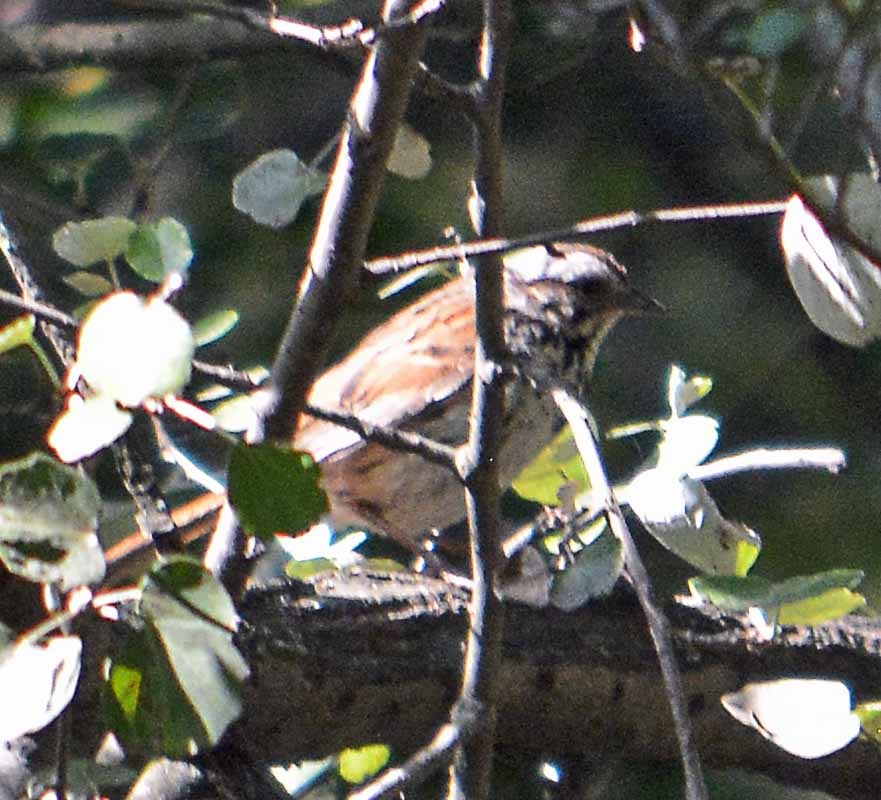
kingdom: Animalia
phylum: Chordata
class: Aves
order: Passeriformes
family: Passerellidae
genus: Melospiza
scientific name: Melospiza melodia
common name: Song sparrow
